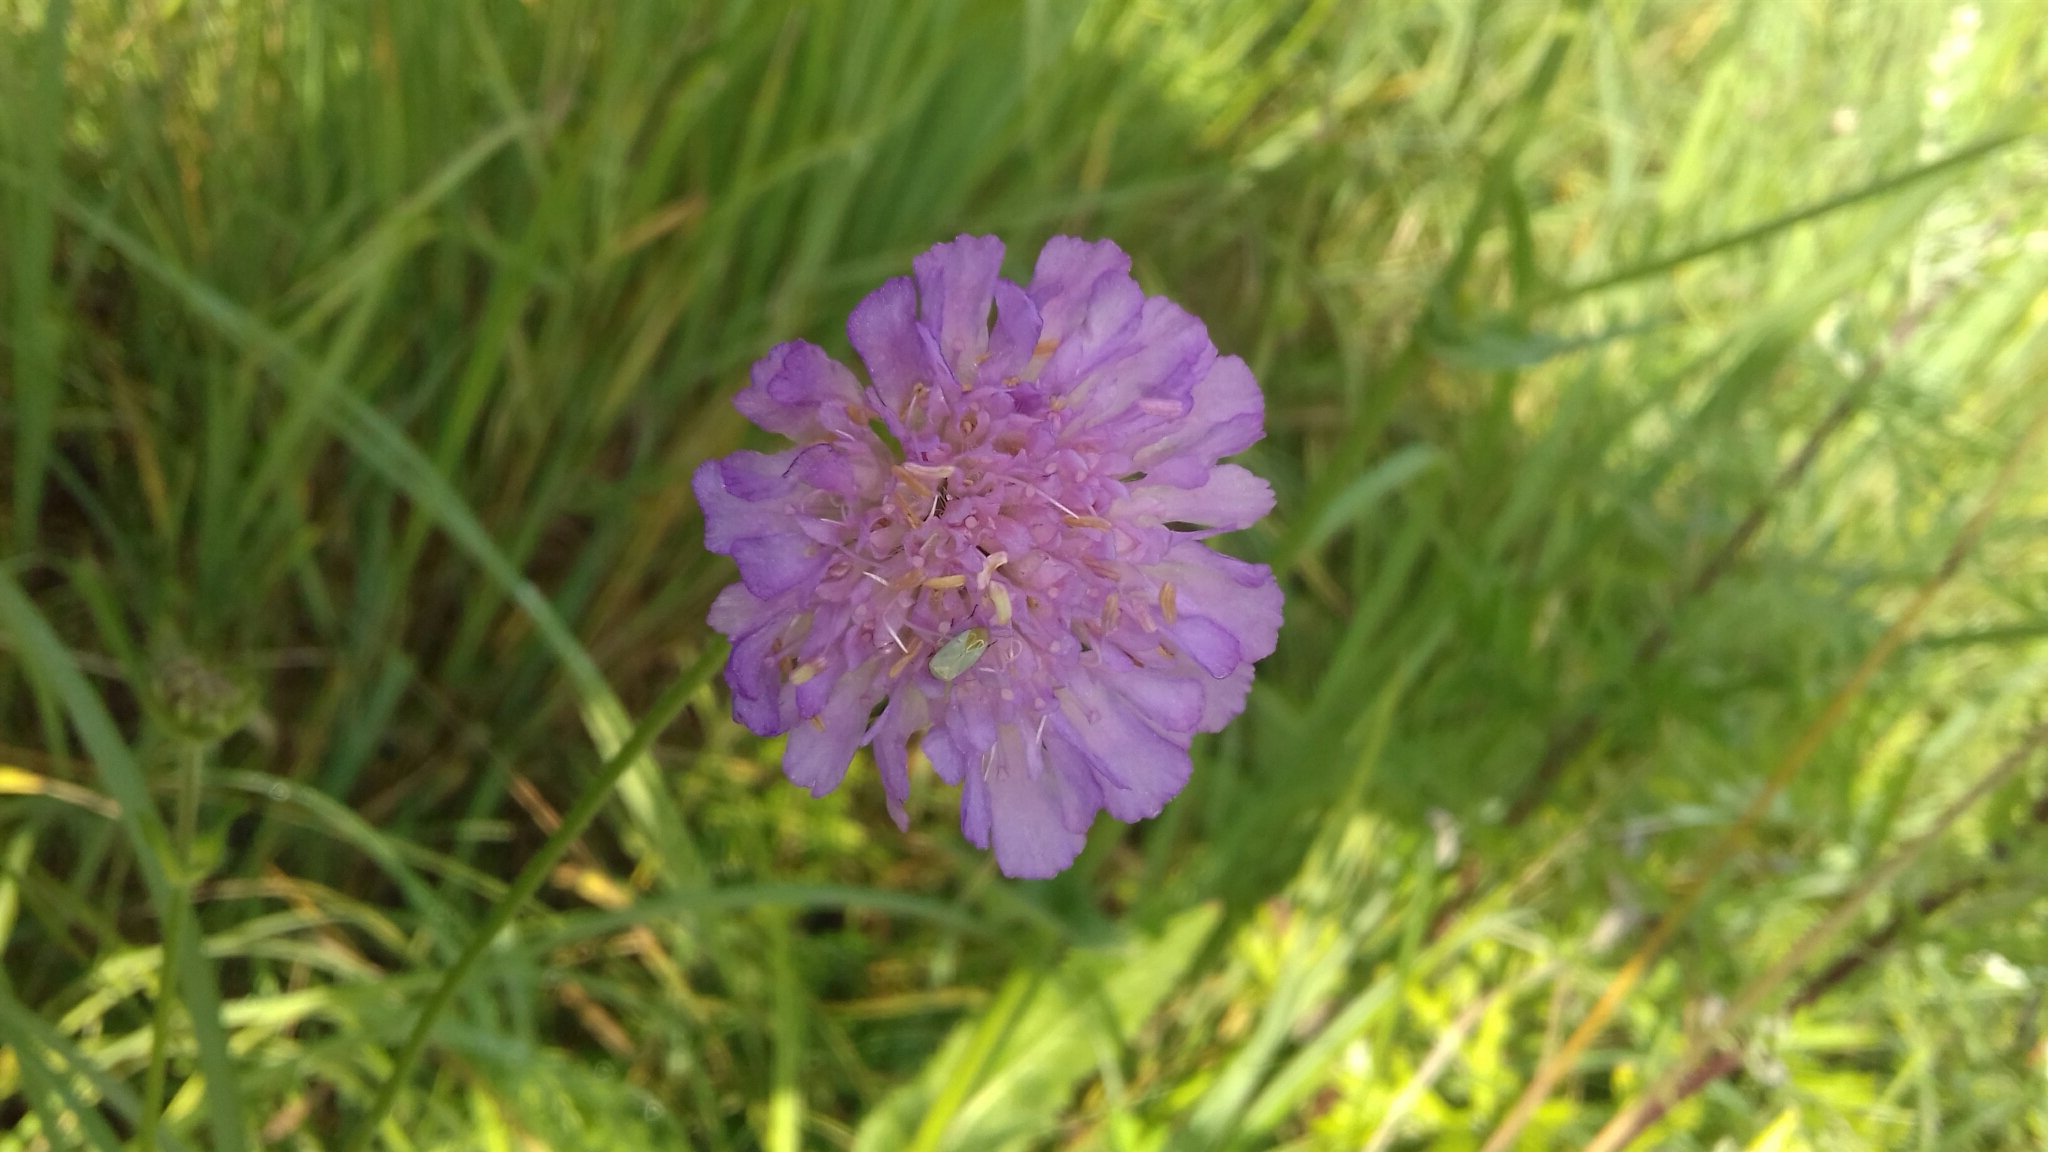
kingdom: Plantae
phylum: Tracheophyta
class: Magnoliopsida
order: Dipsacales
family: Caprifoliaceae
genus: Knautia
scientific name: Knautia arvensis
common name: Field scabiosa
